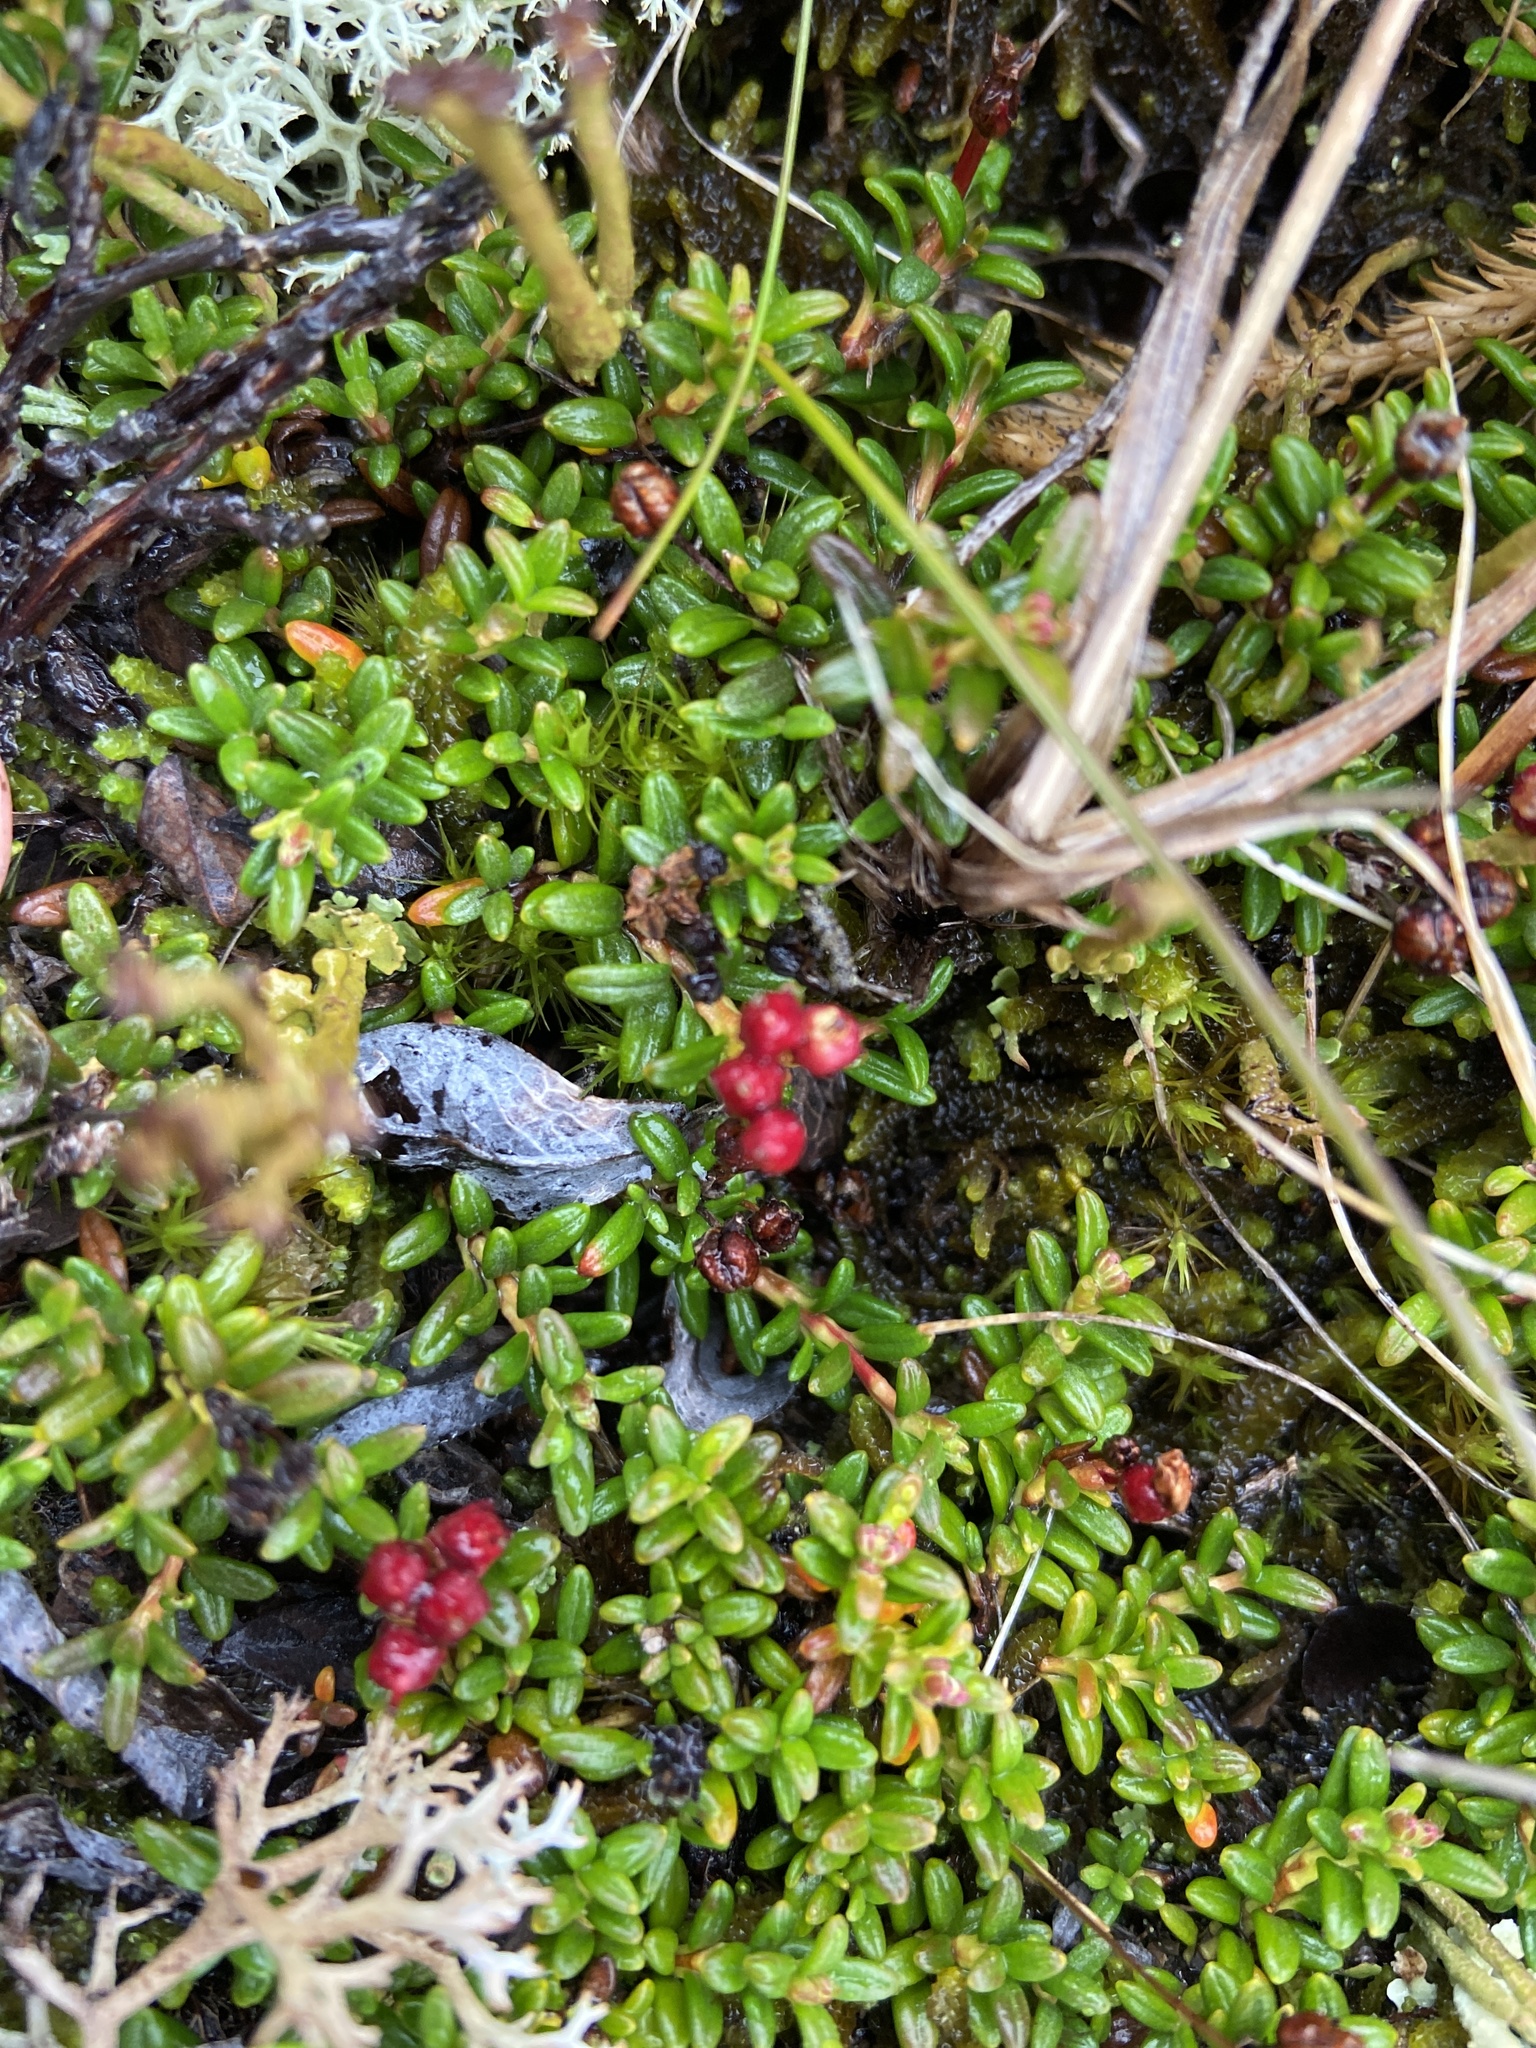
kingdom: Plantae
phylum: Tracheophyta
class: Magnoliopsida
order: Ericales
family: Ericaceae
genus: Kalmia
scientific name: Kalmia procumbens
